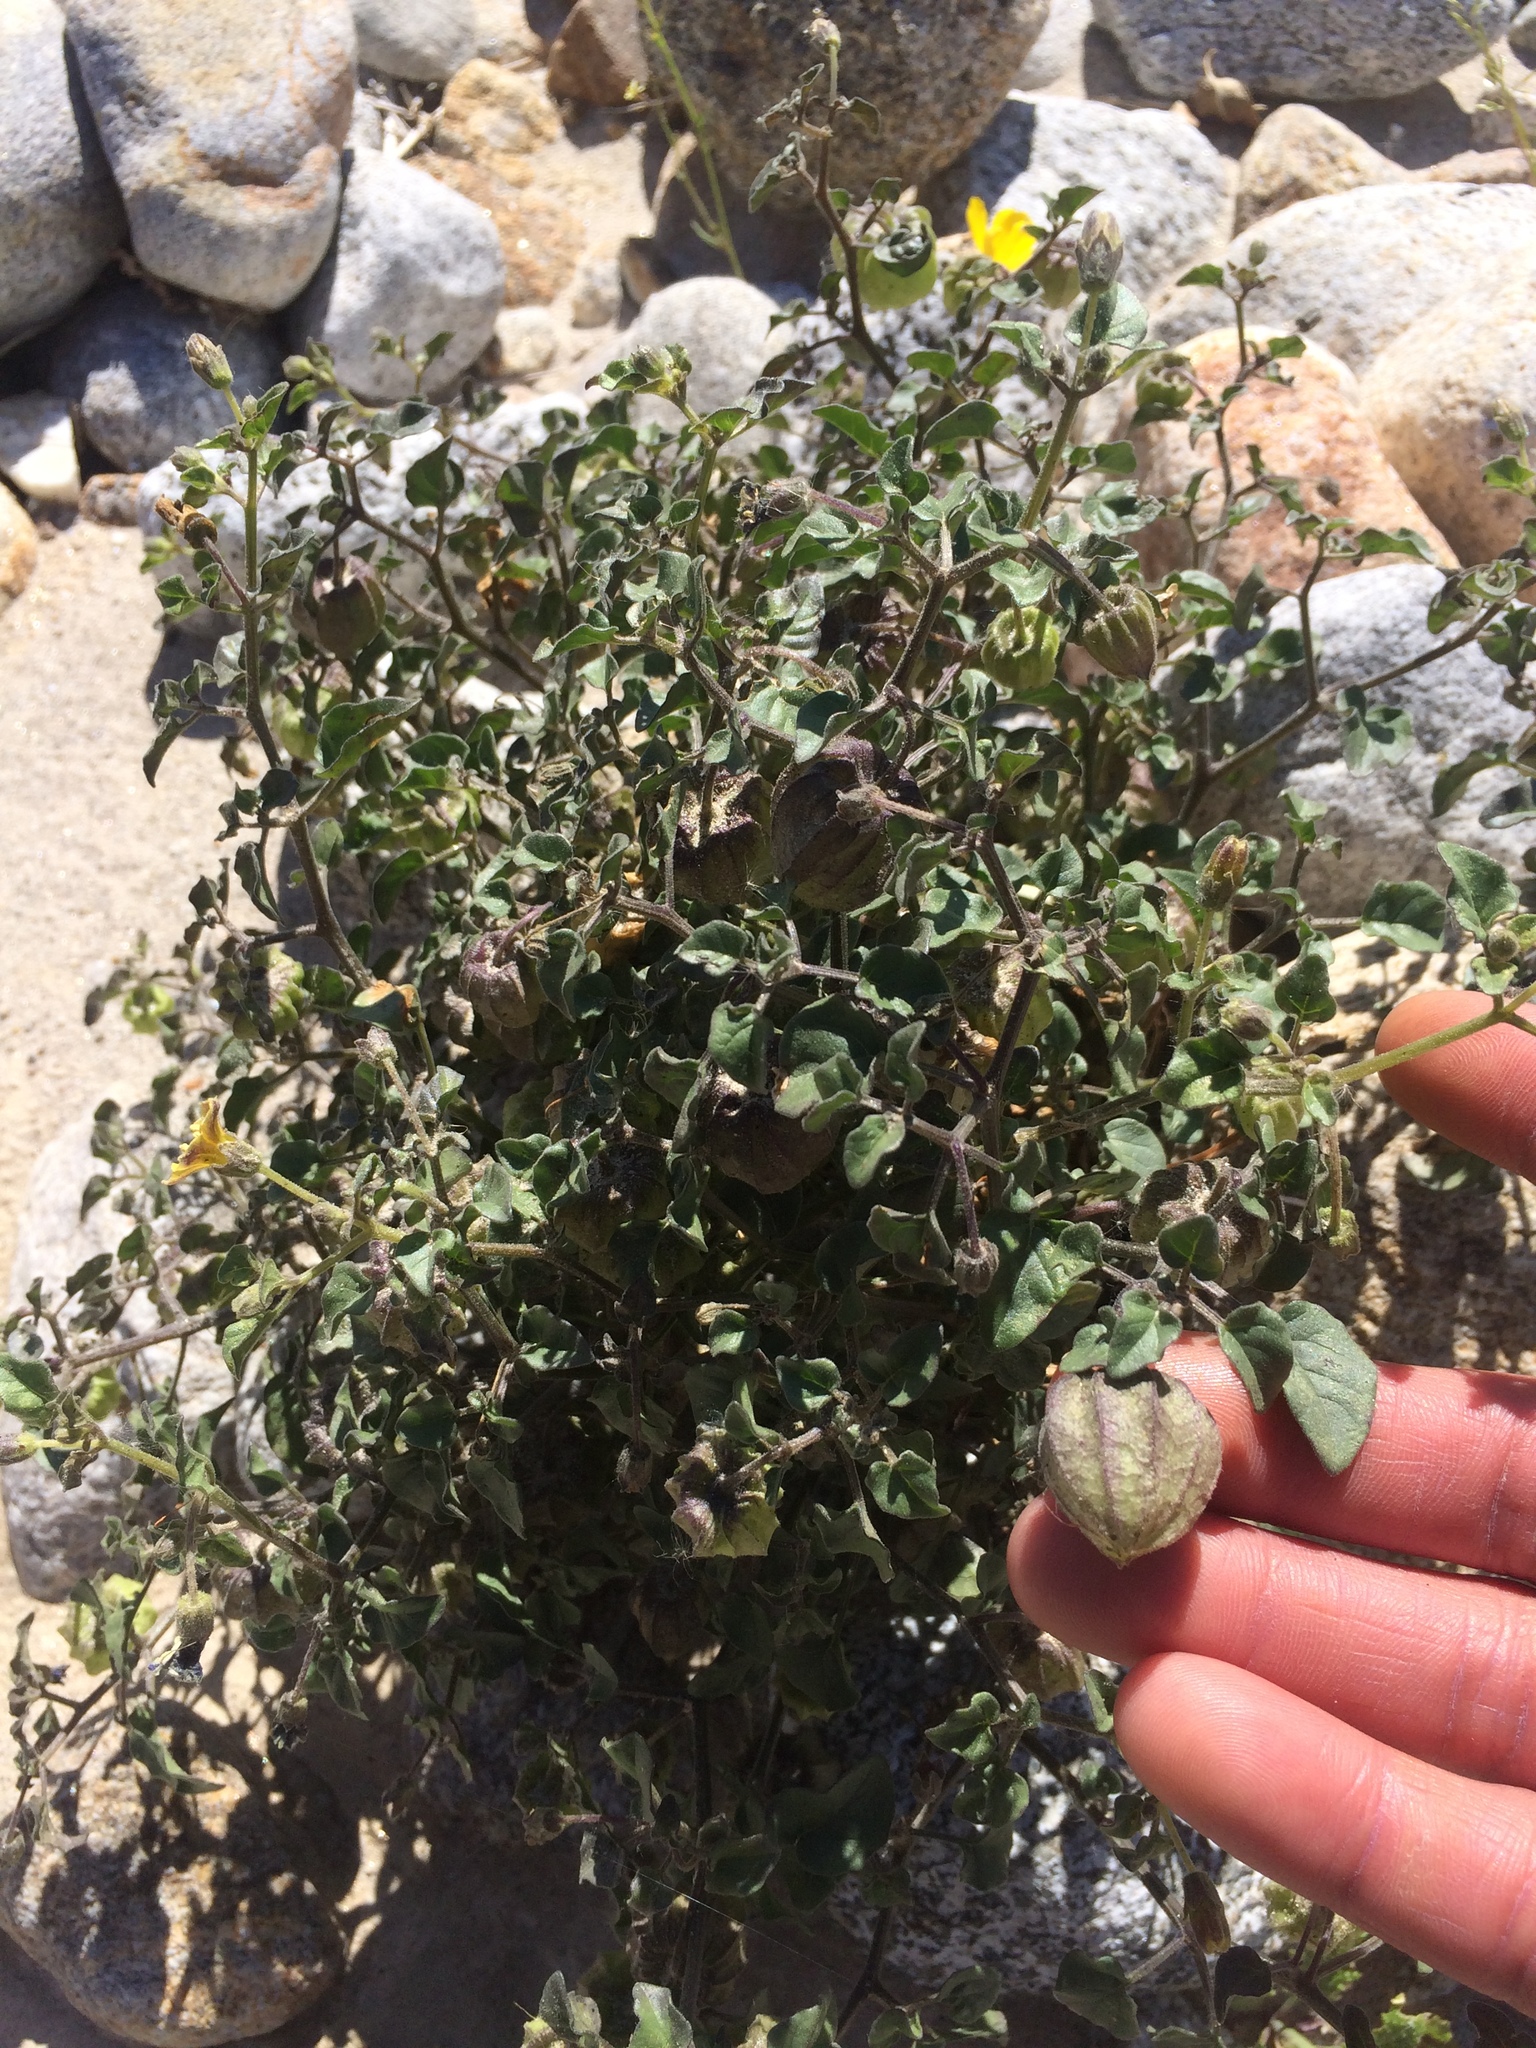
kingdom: Plantae
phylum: Tracheophyta
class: Magnoliopsida
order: Solanales
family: Solanaceae
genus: Physalis
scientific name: Physalis crassifolia
